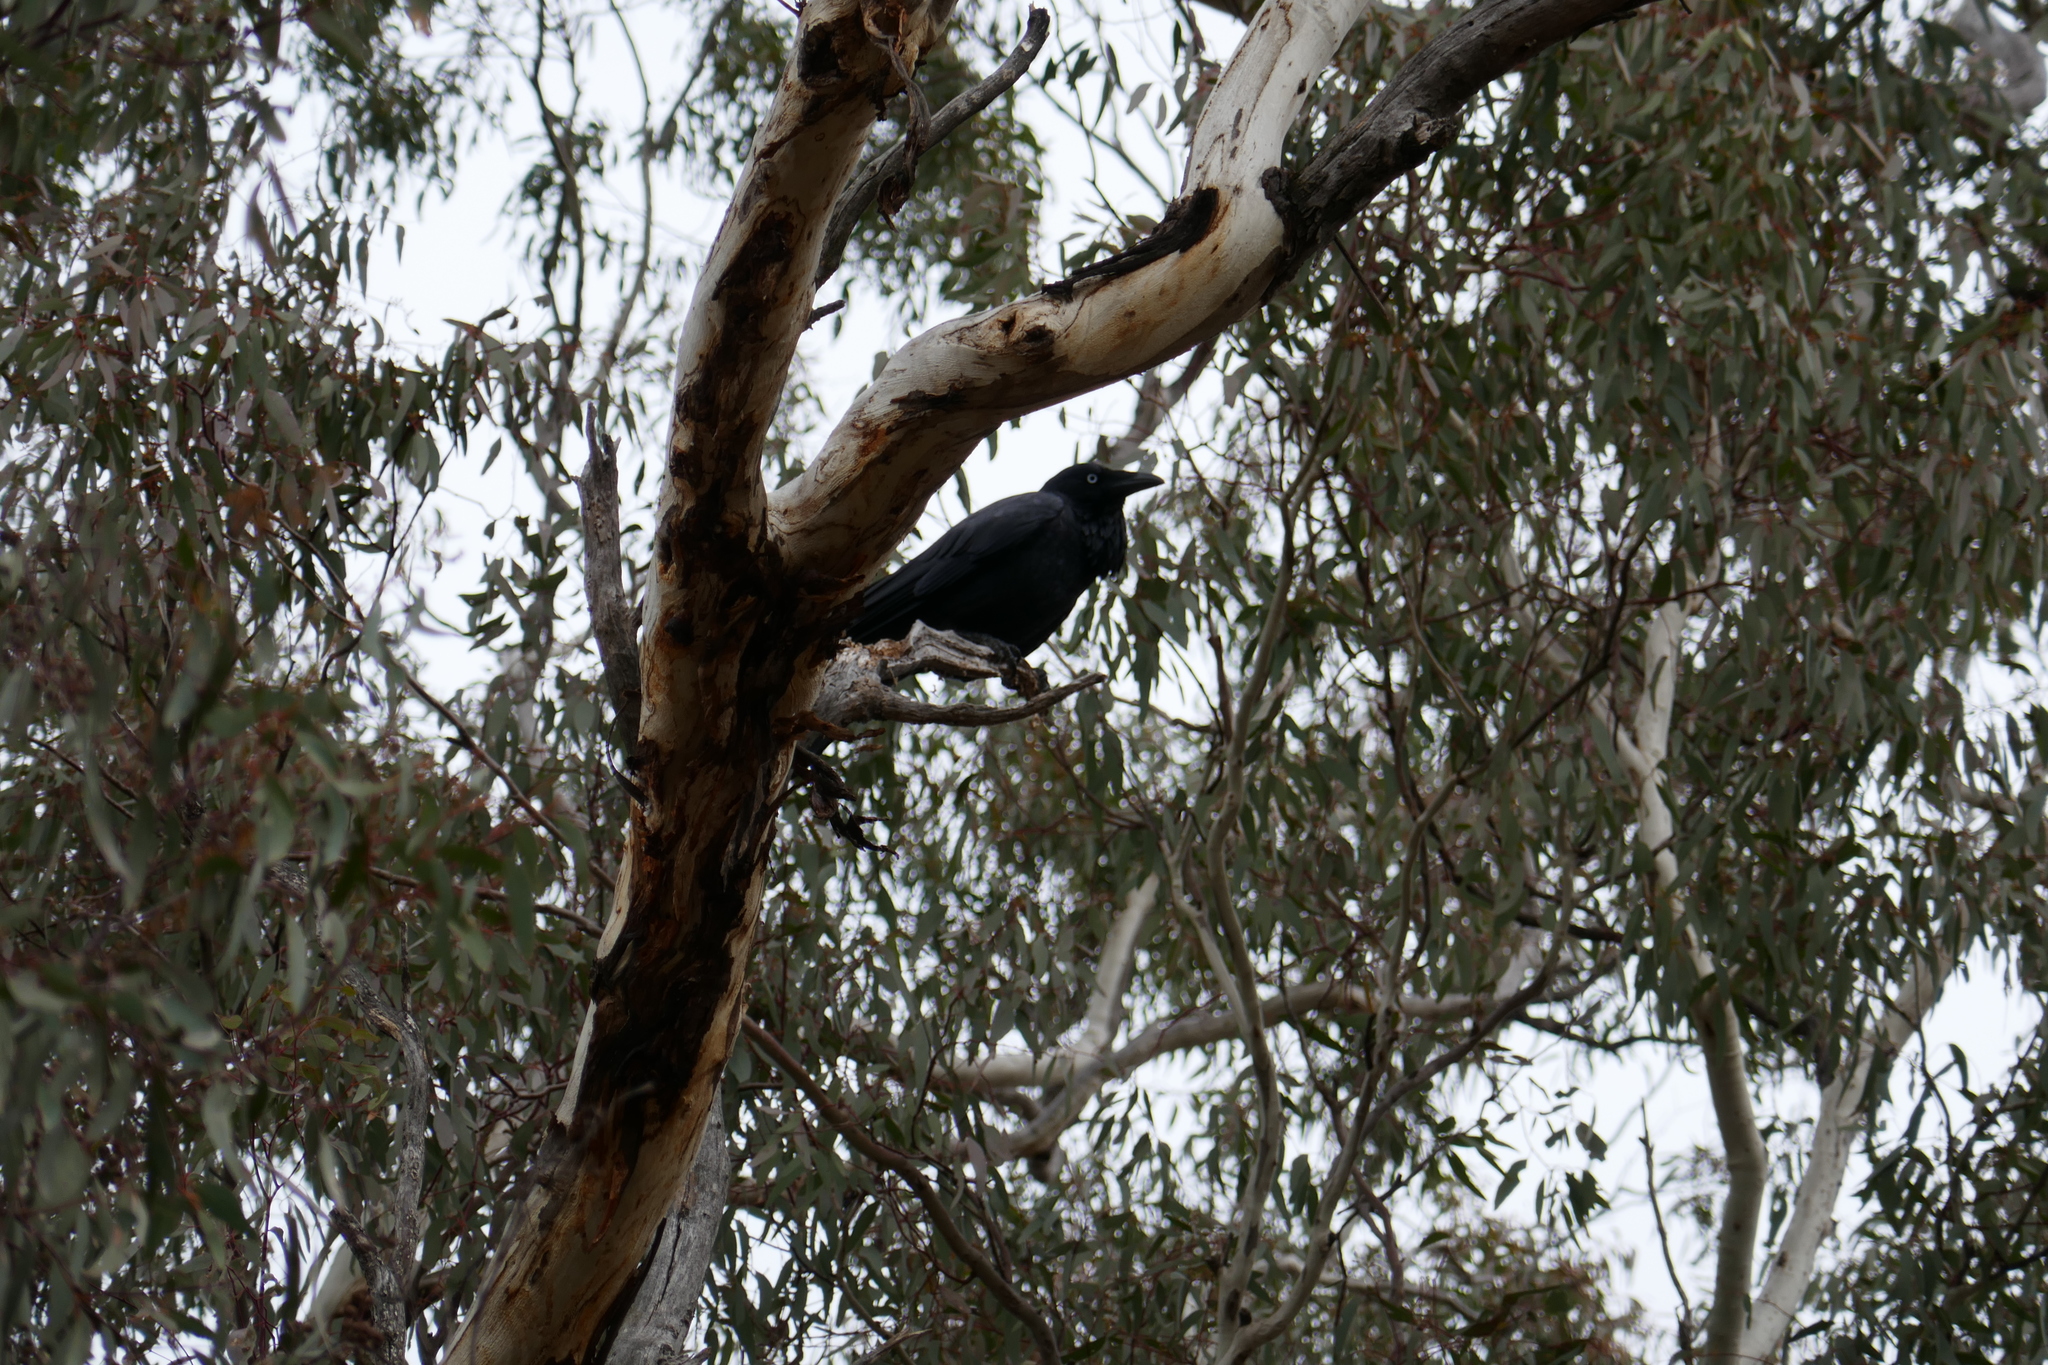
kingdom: Animalia
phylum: Chordata
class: Aves
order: Passeriformes
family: Corvidae
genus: Corvus
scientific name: Corvus coronoides
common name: Australian raven
